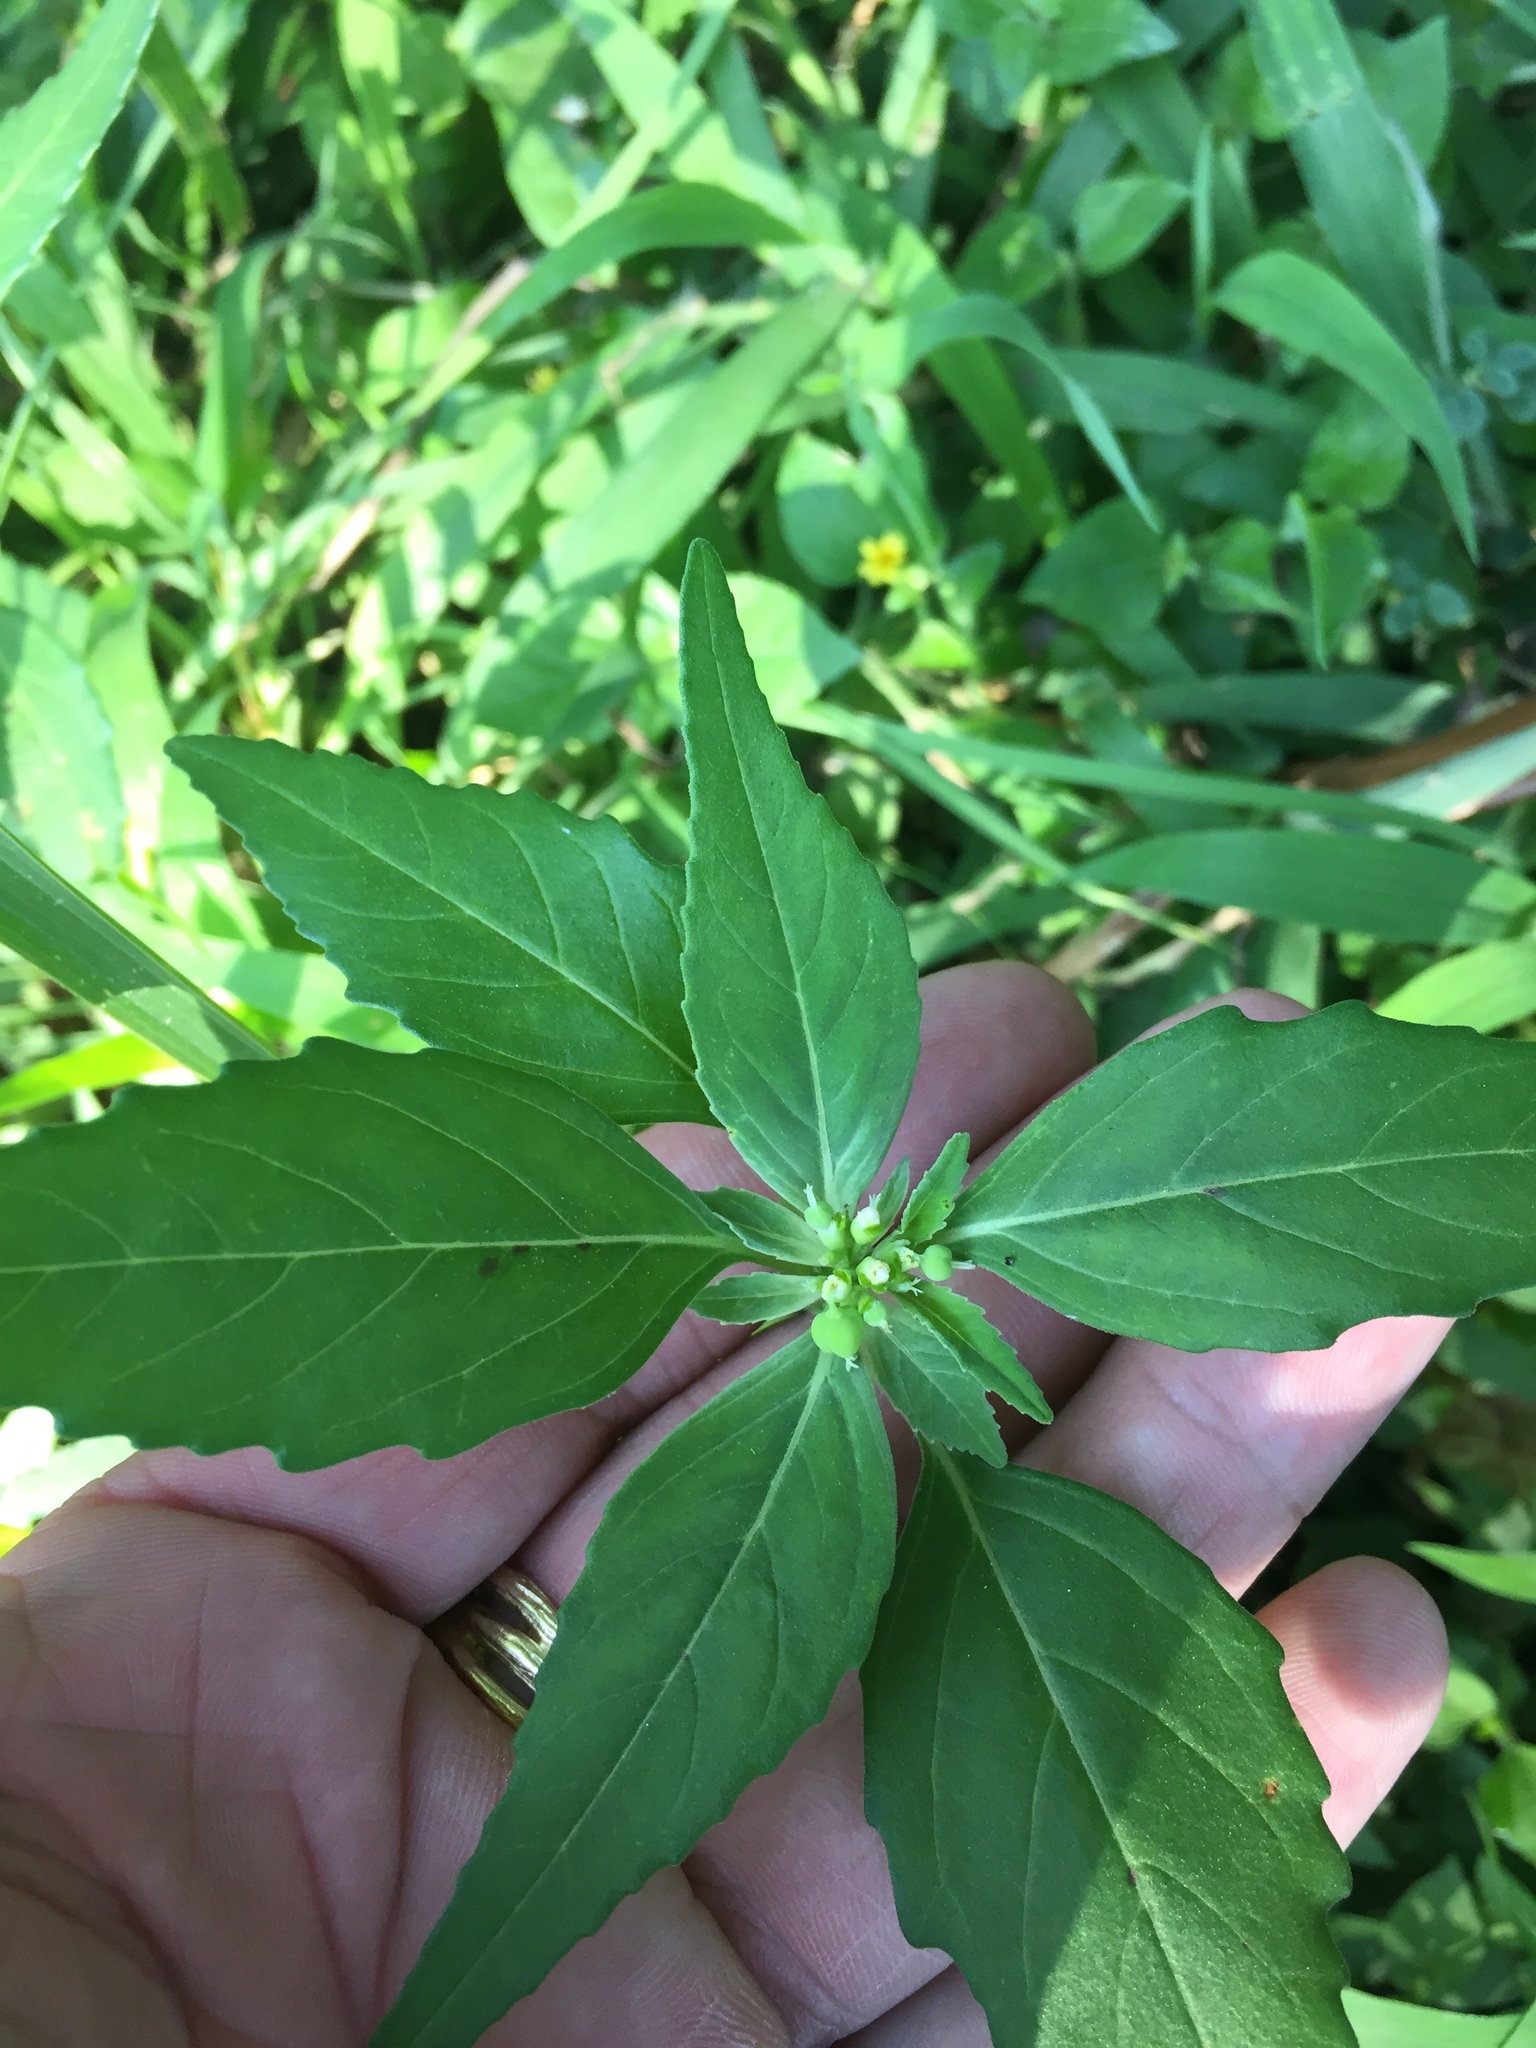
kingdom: Plantae
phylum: Tracheophyta
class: Magnoliopsida
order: Malpighiales
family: Euphorbiaceae
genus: Euphorbia
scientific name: Euphorbia dentata
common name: Dentate spurge
